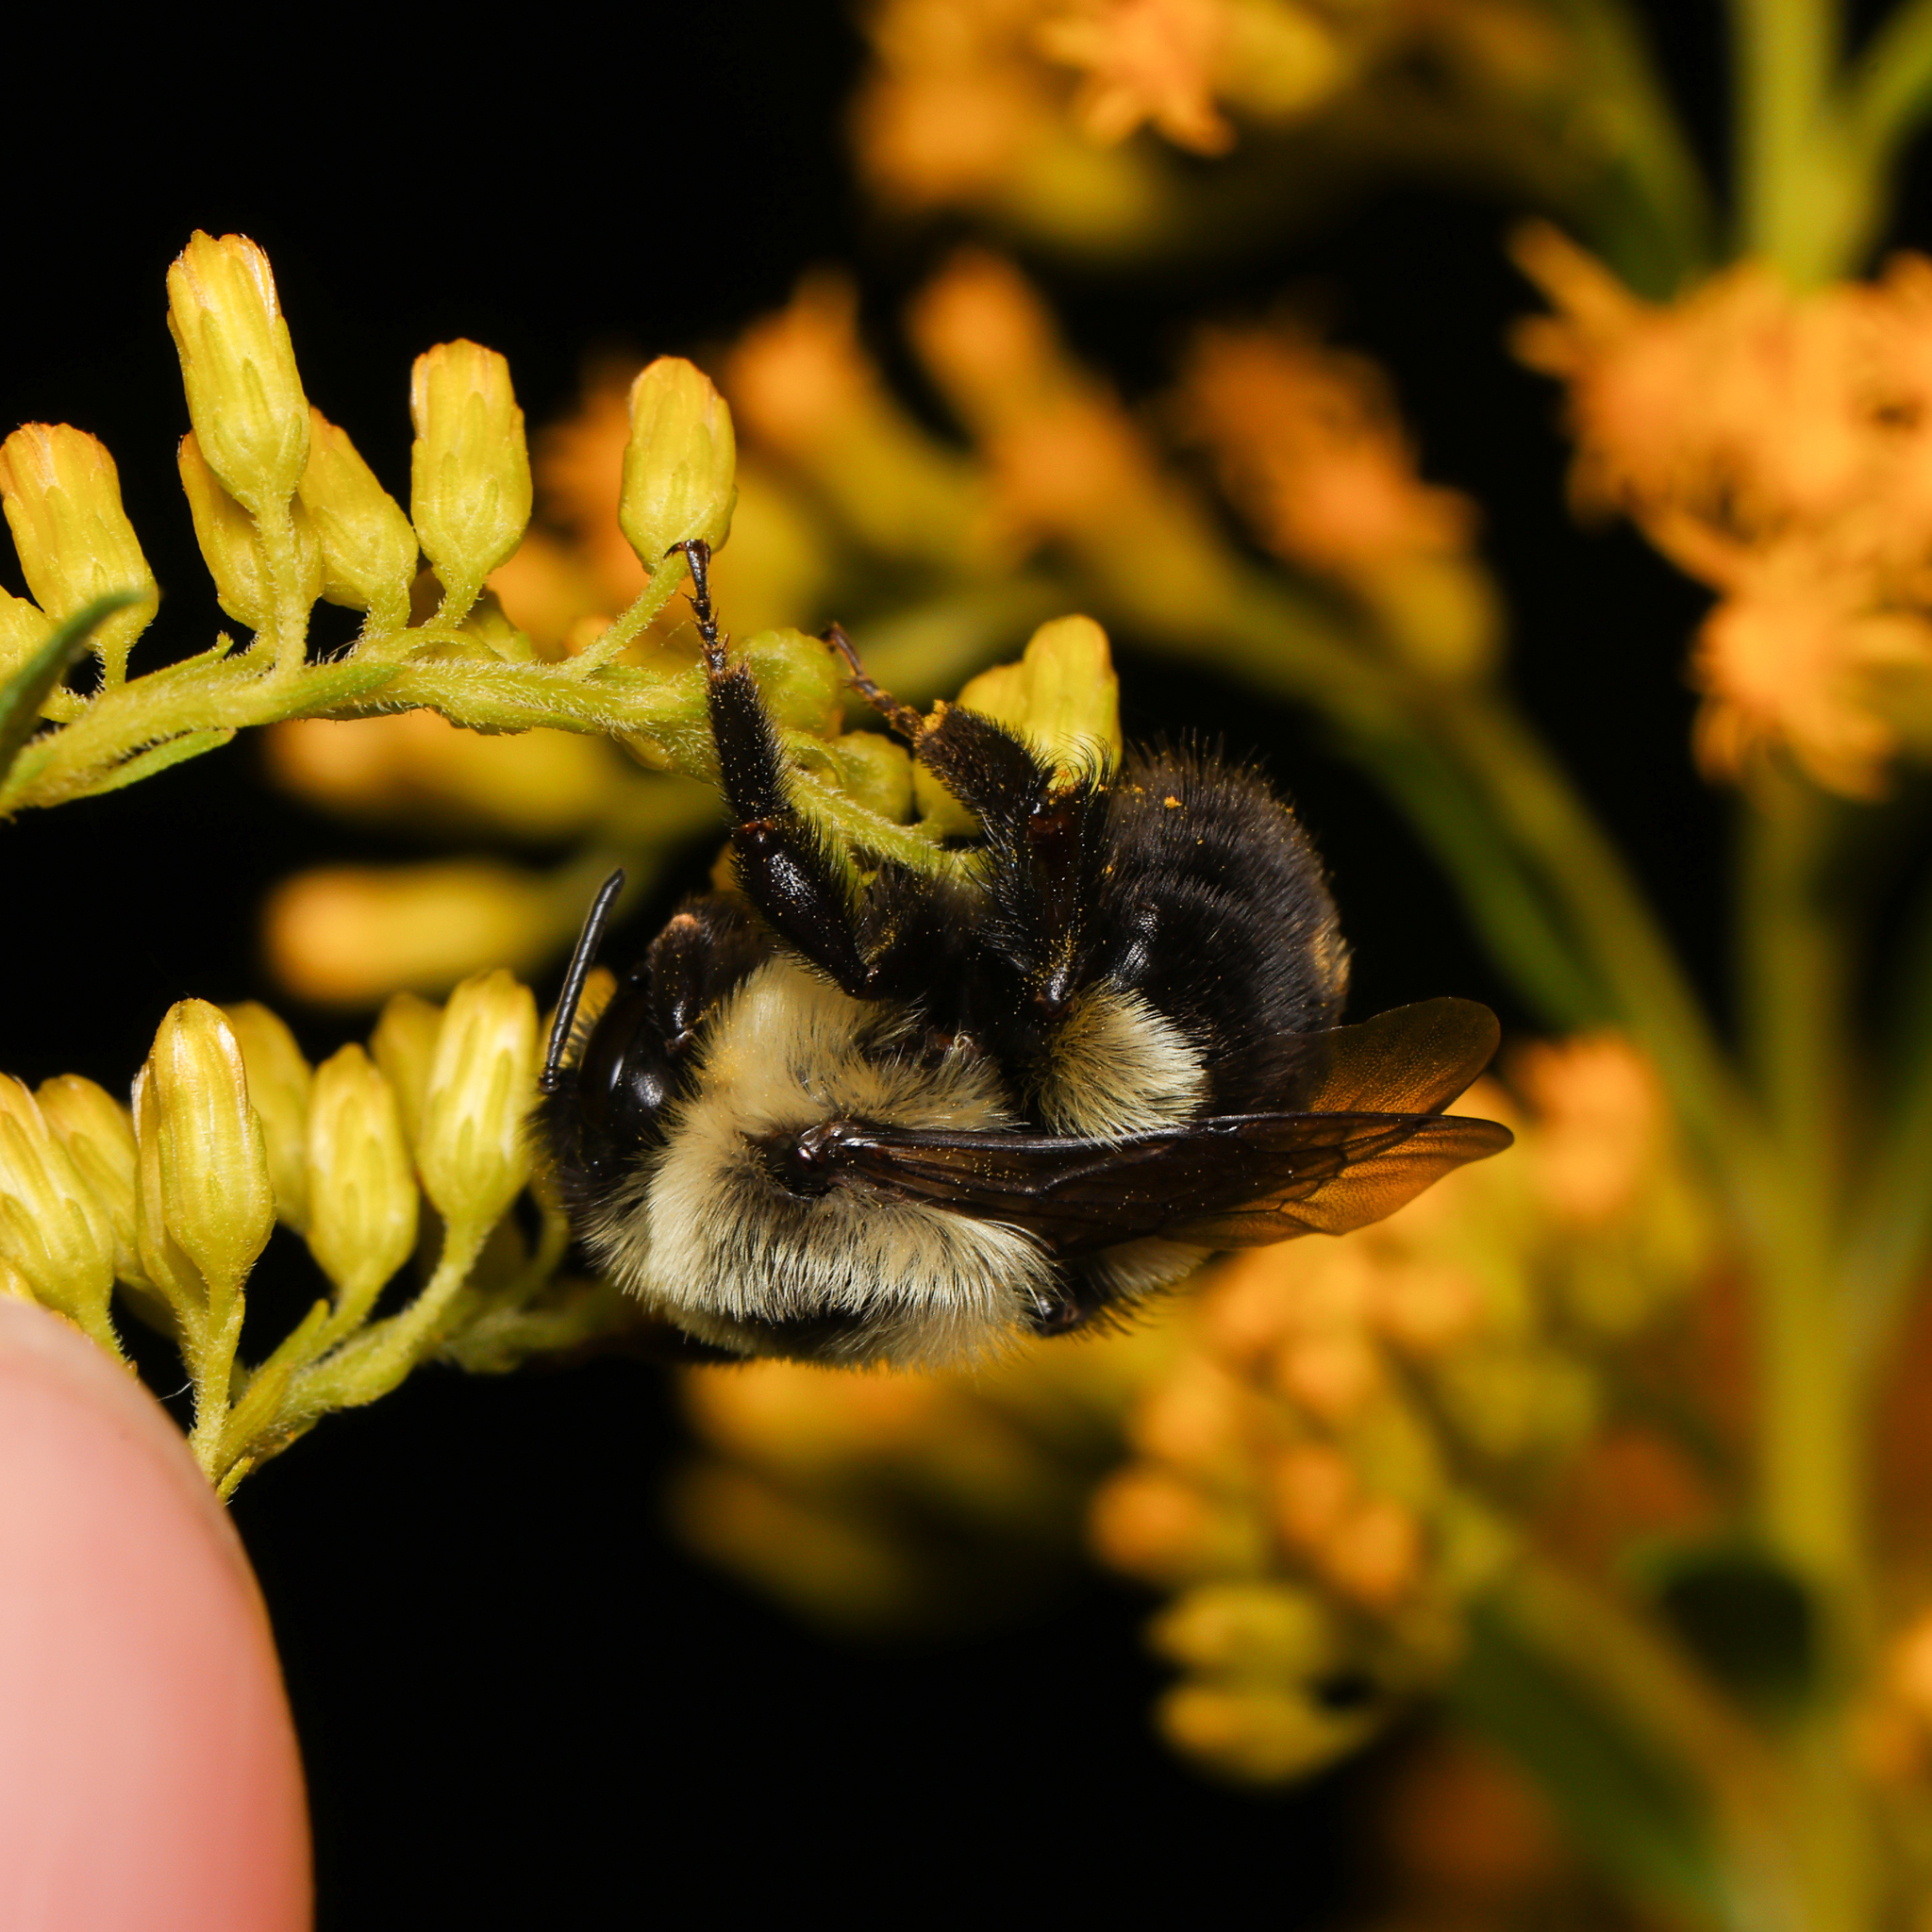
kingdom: Animalia
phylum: Arthropoda
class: Insecta
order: Hymenoptera
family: Apidae
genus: Bombus
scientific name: Bombus impatiens
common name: Common eastern bumble bee
